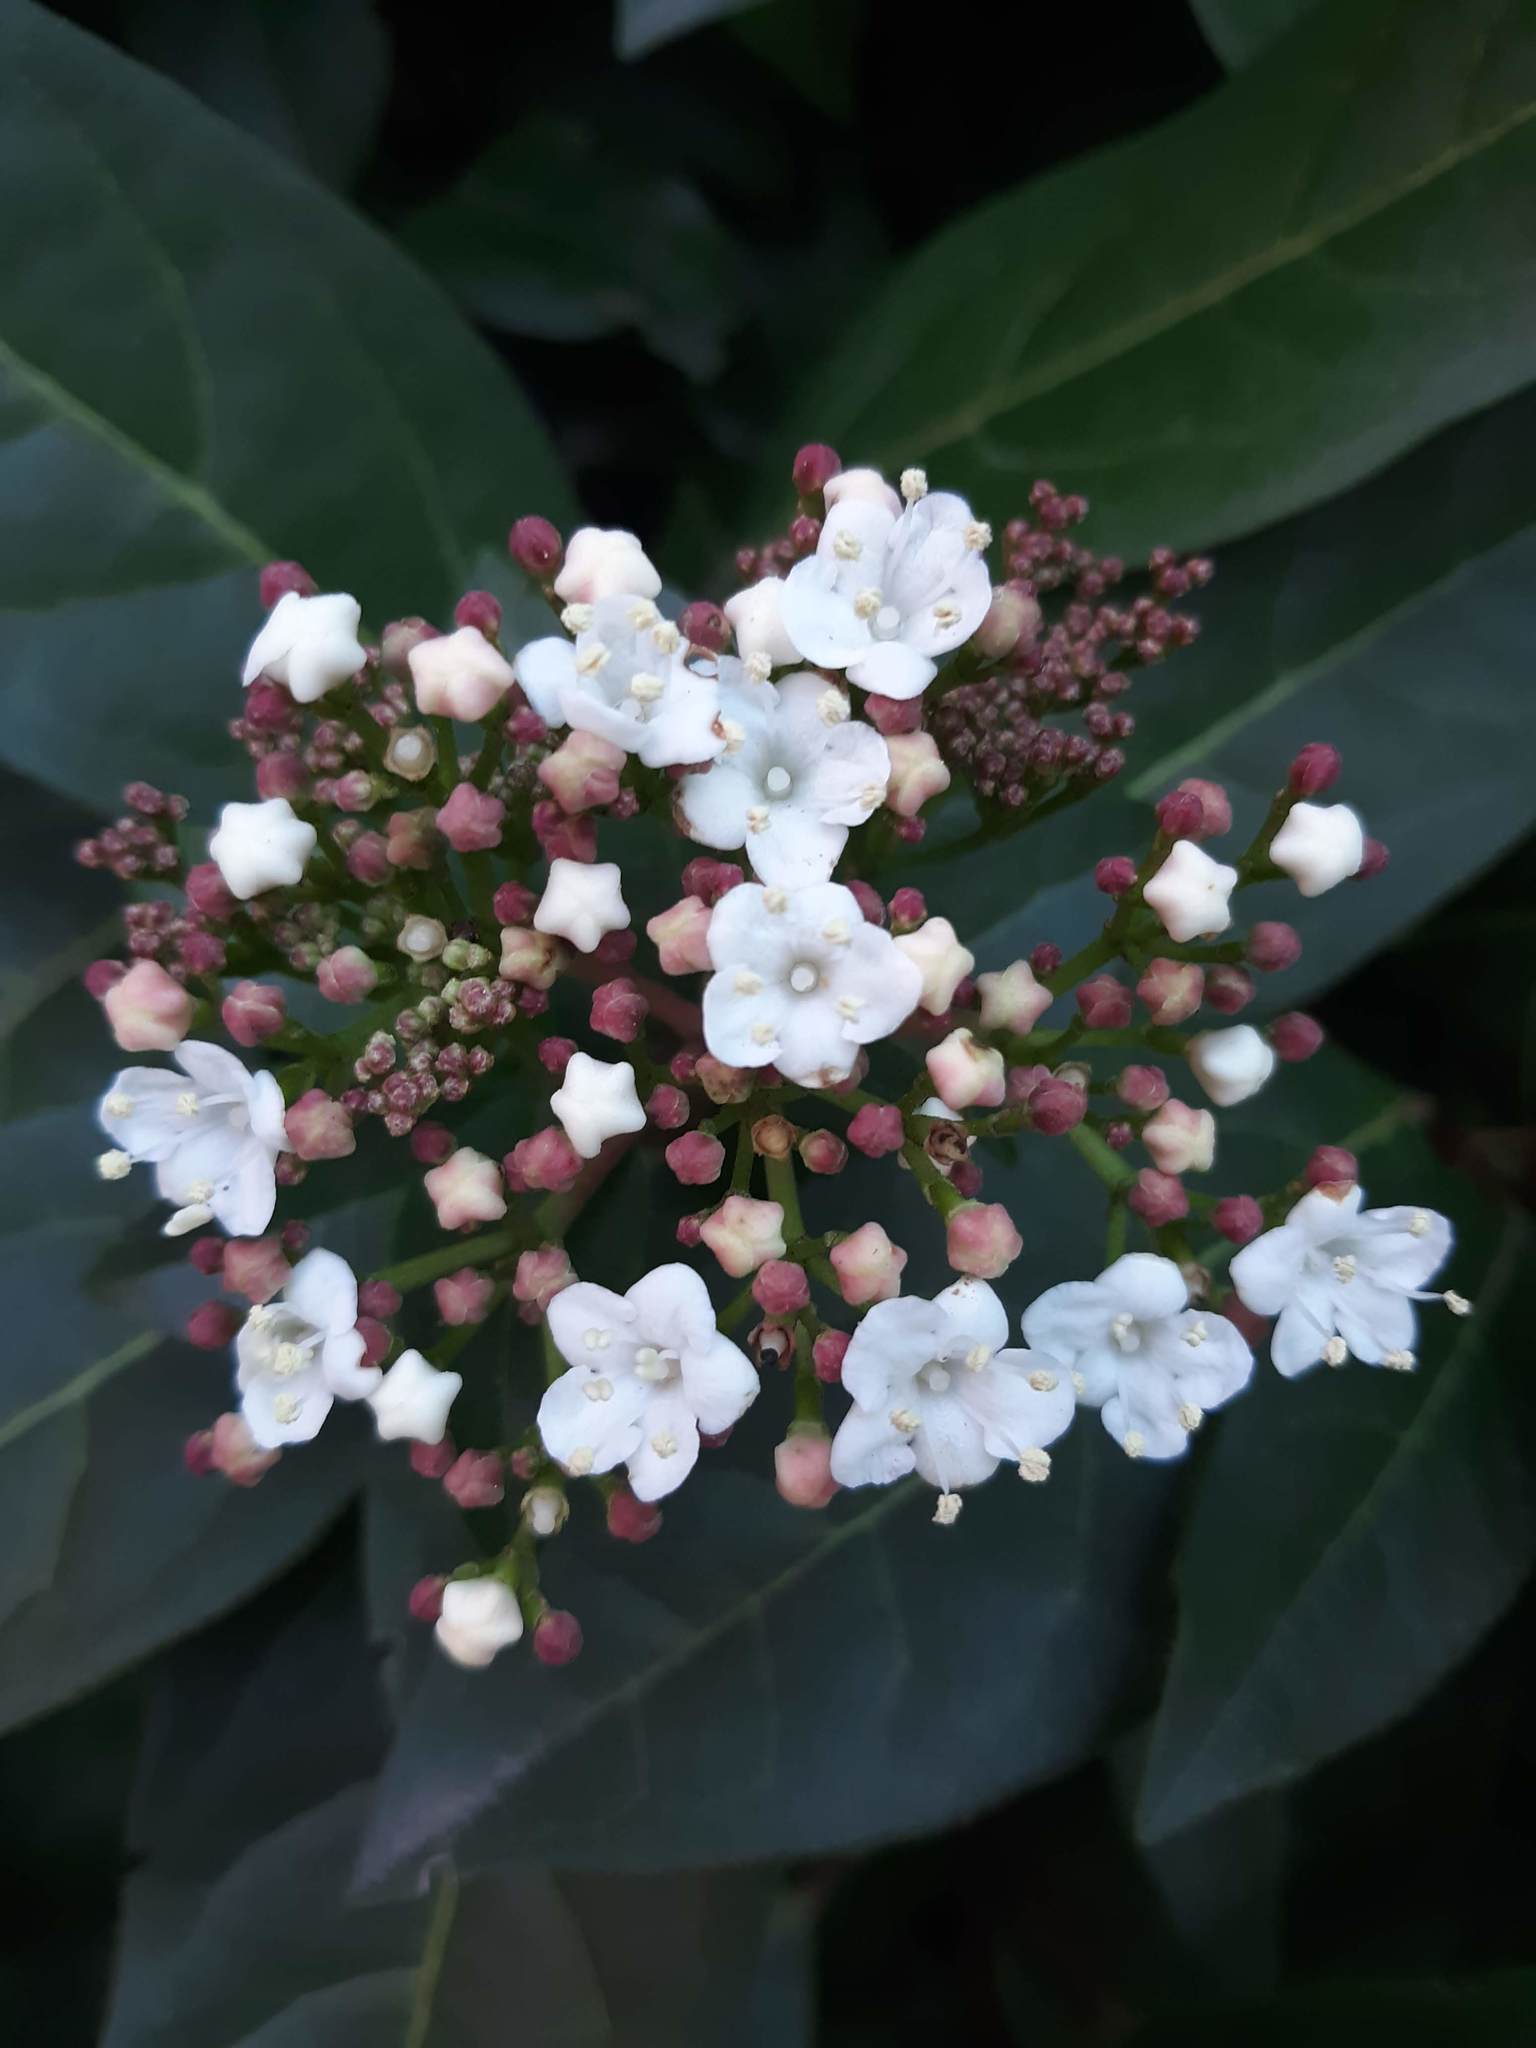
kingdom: Plantae
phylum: Tracheophyta
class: Magnoliopsida
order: Dipsacales
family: Viburnaceae
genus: Viburnum
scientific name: Viburnum tinus
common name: Laurustinus
